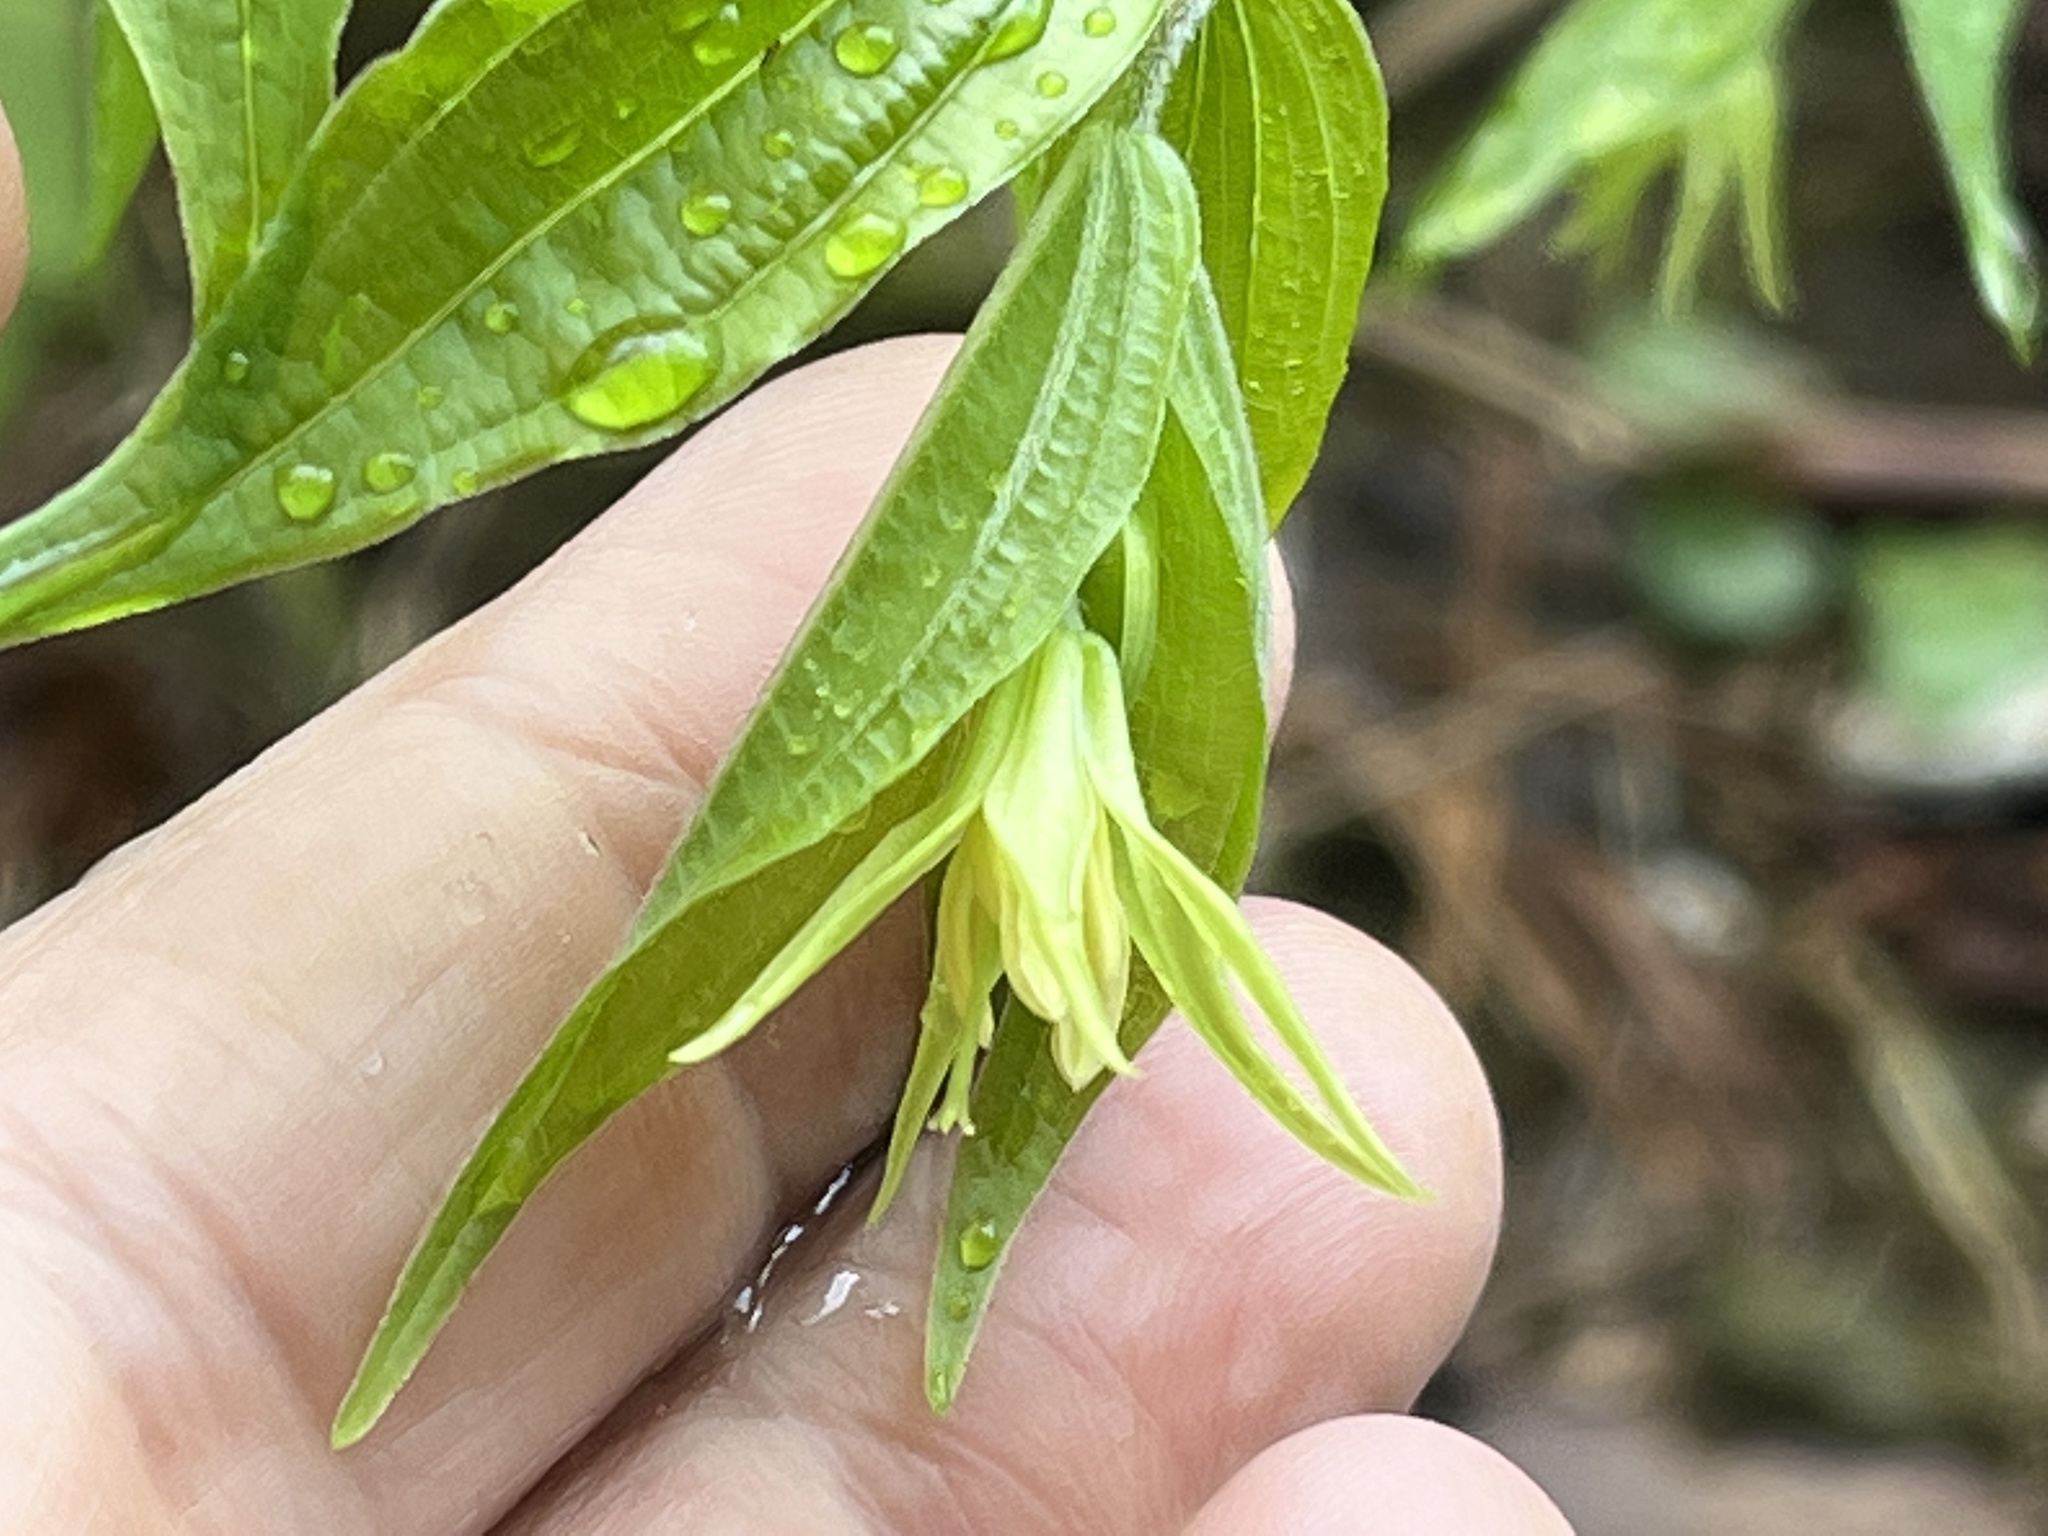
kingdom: Plantae
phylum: Tracheophyta
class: Liliopsida
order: Liliales
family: Liliaceae
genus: Prosartes
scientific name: Prosartes lanuginosa
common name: Hairy mandarin
